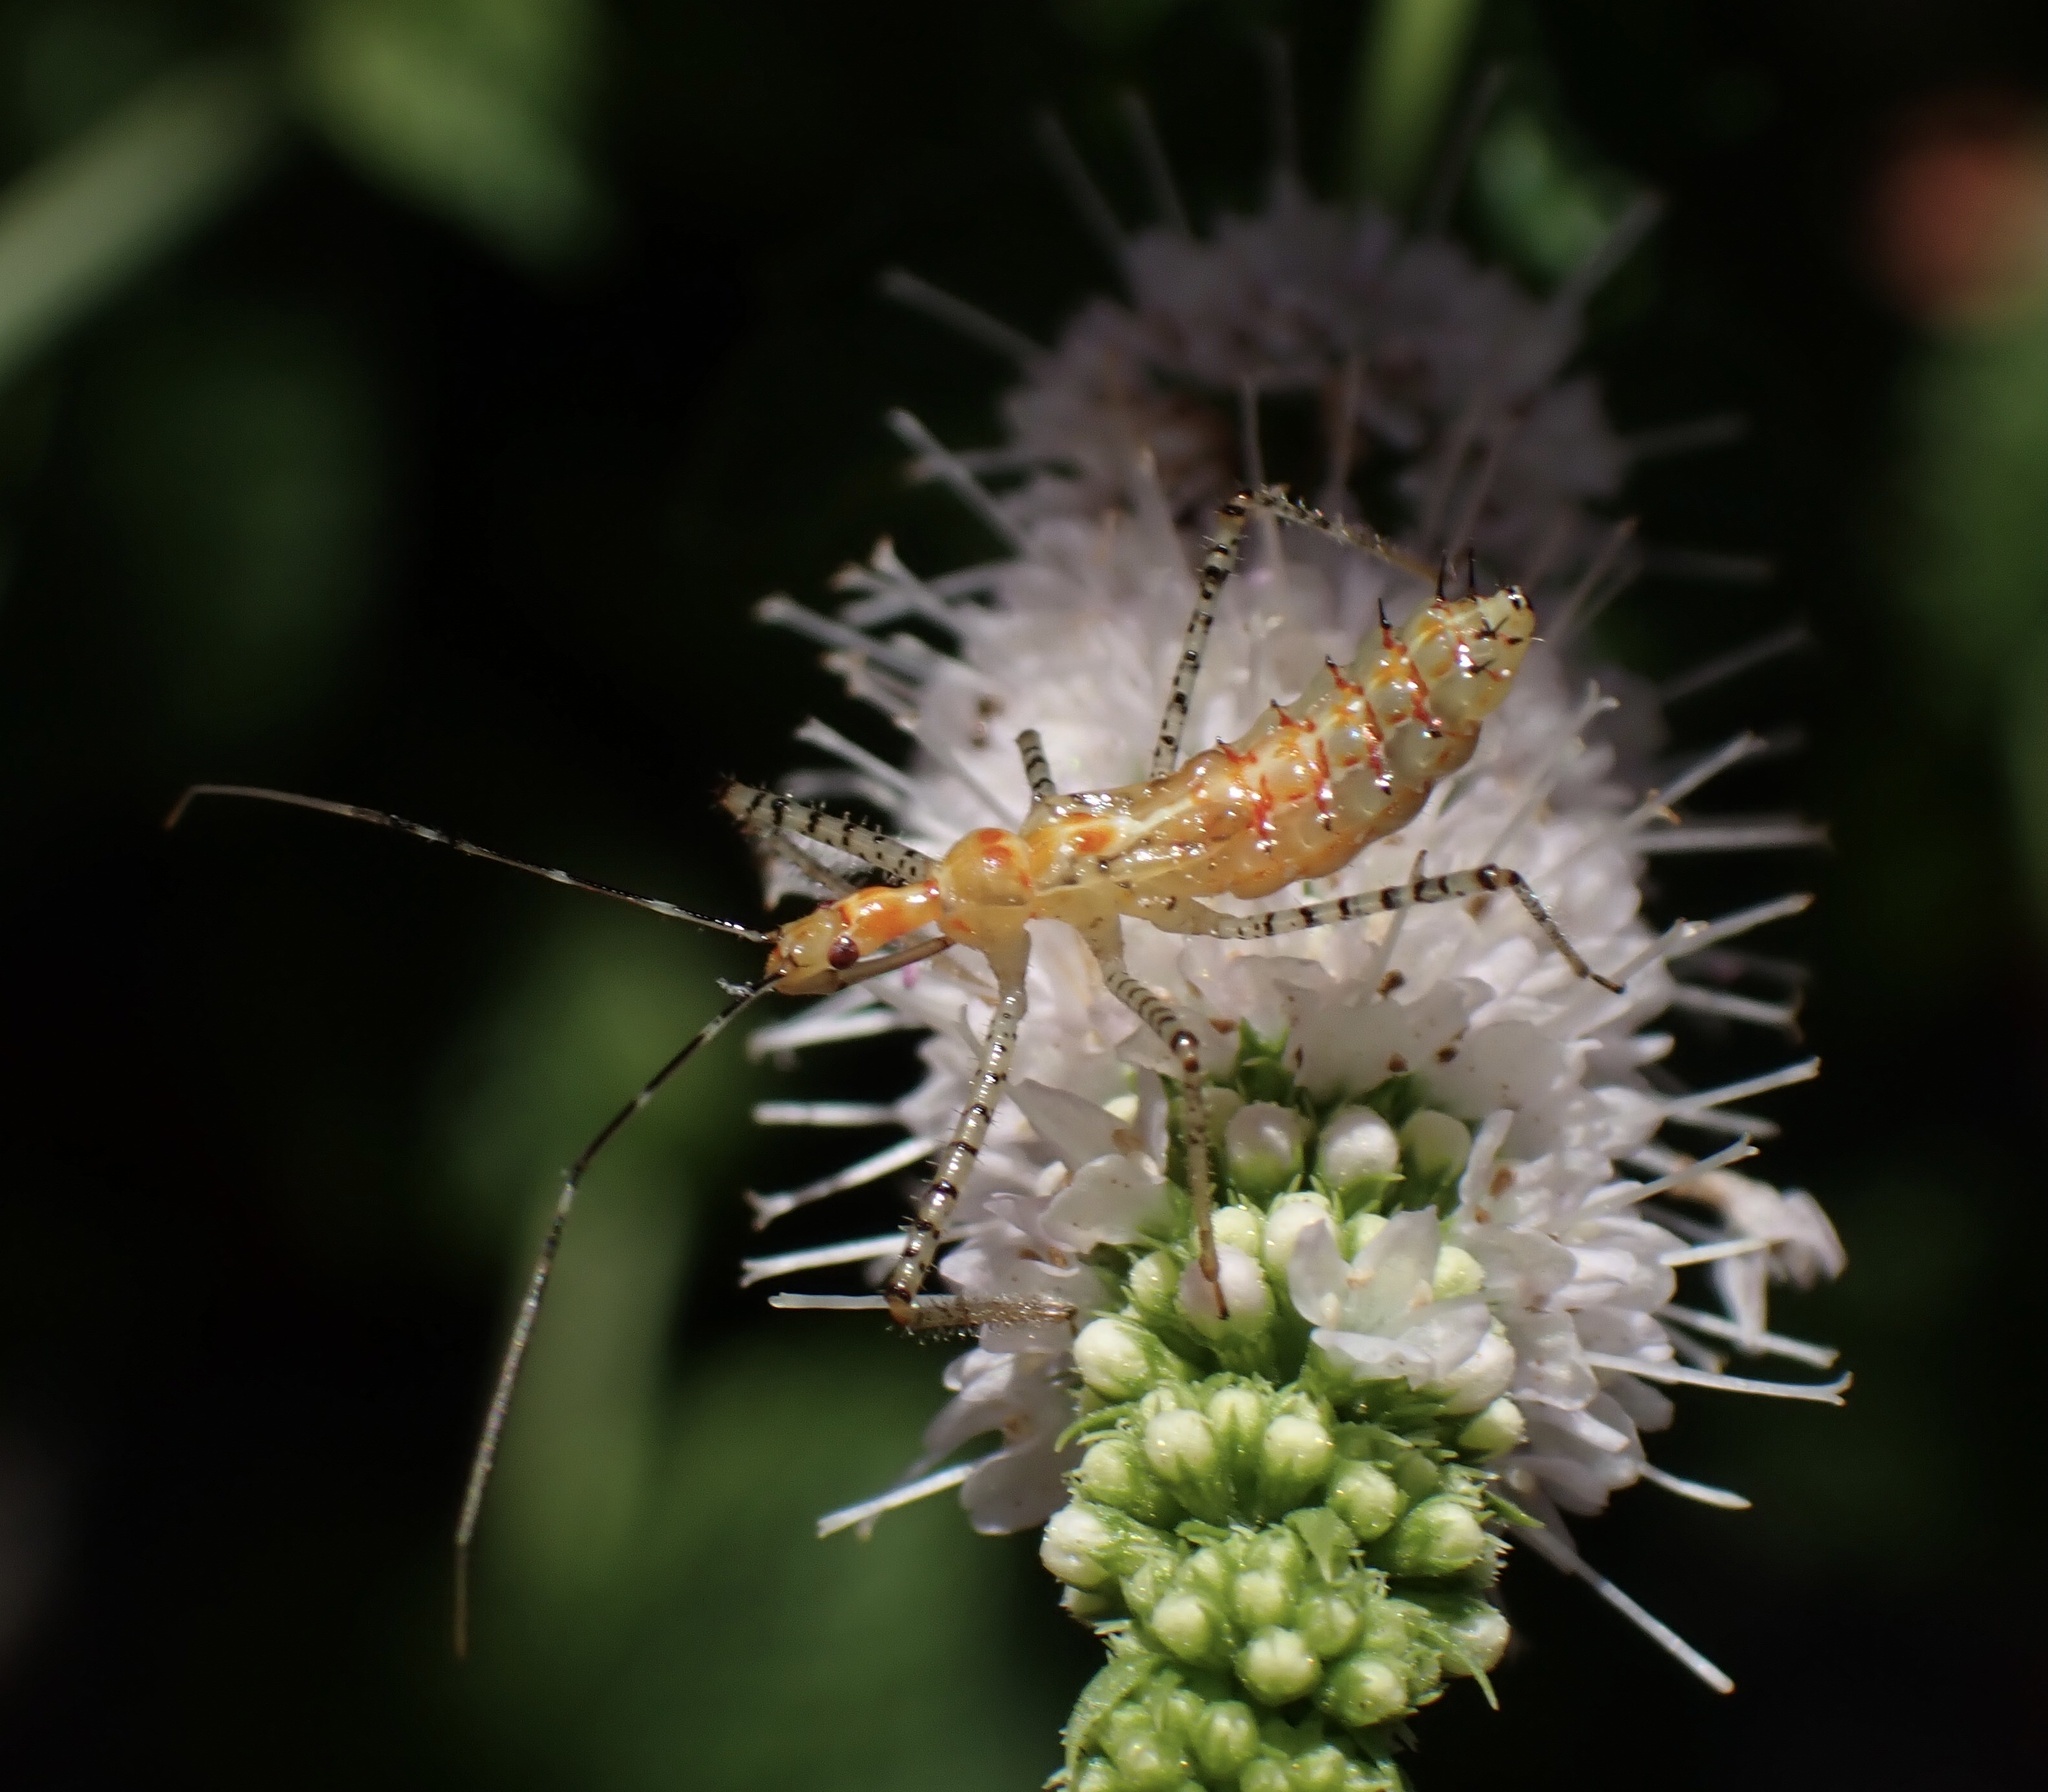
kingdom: Animalia
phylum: Arthropoda
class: Insecta
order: Hemiptera
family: Reduviidae
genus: Zelus
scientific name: Zelus renardii
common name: Assassin bug
